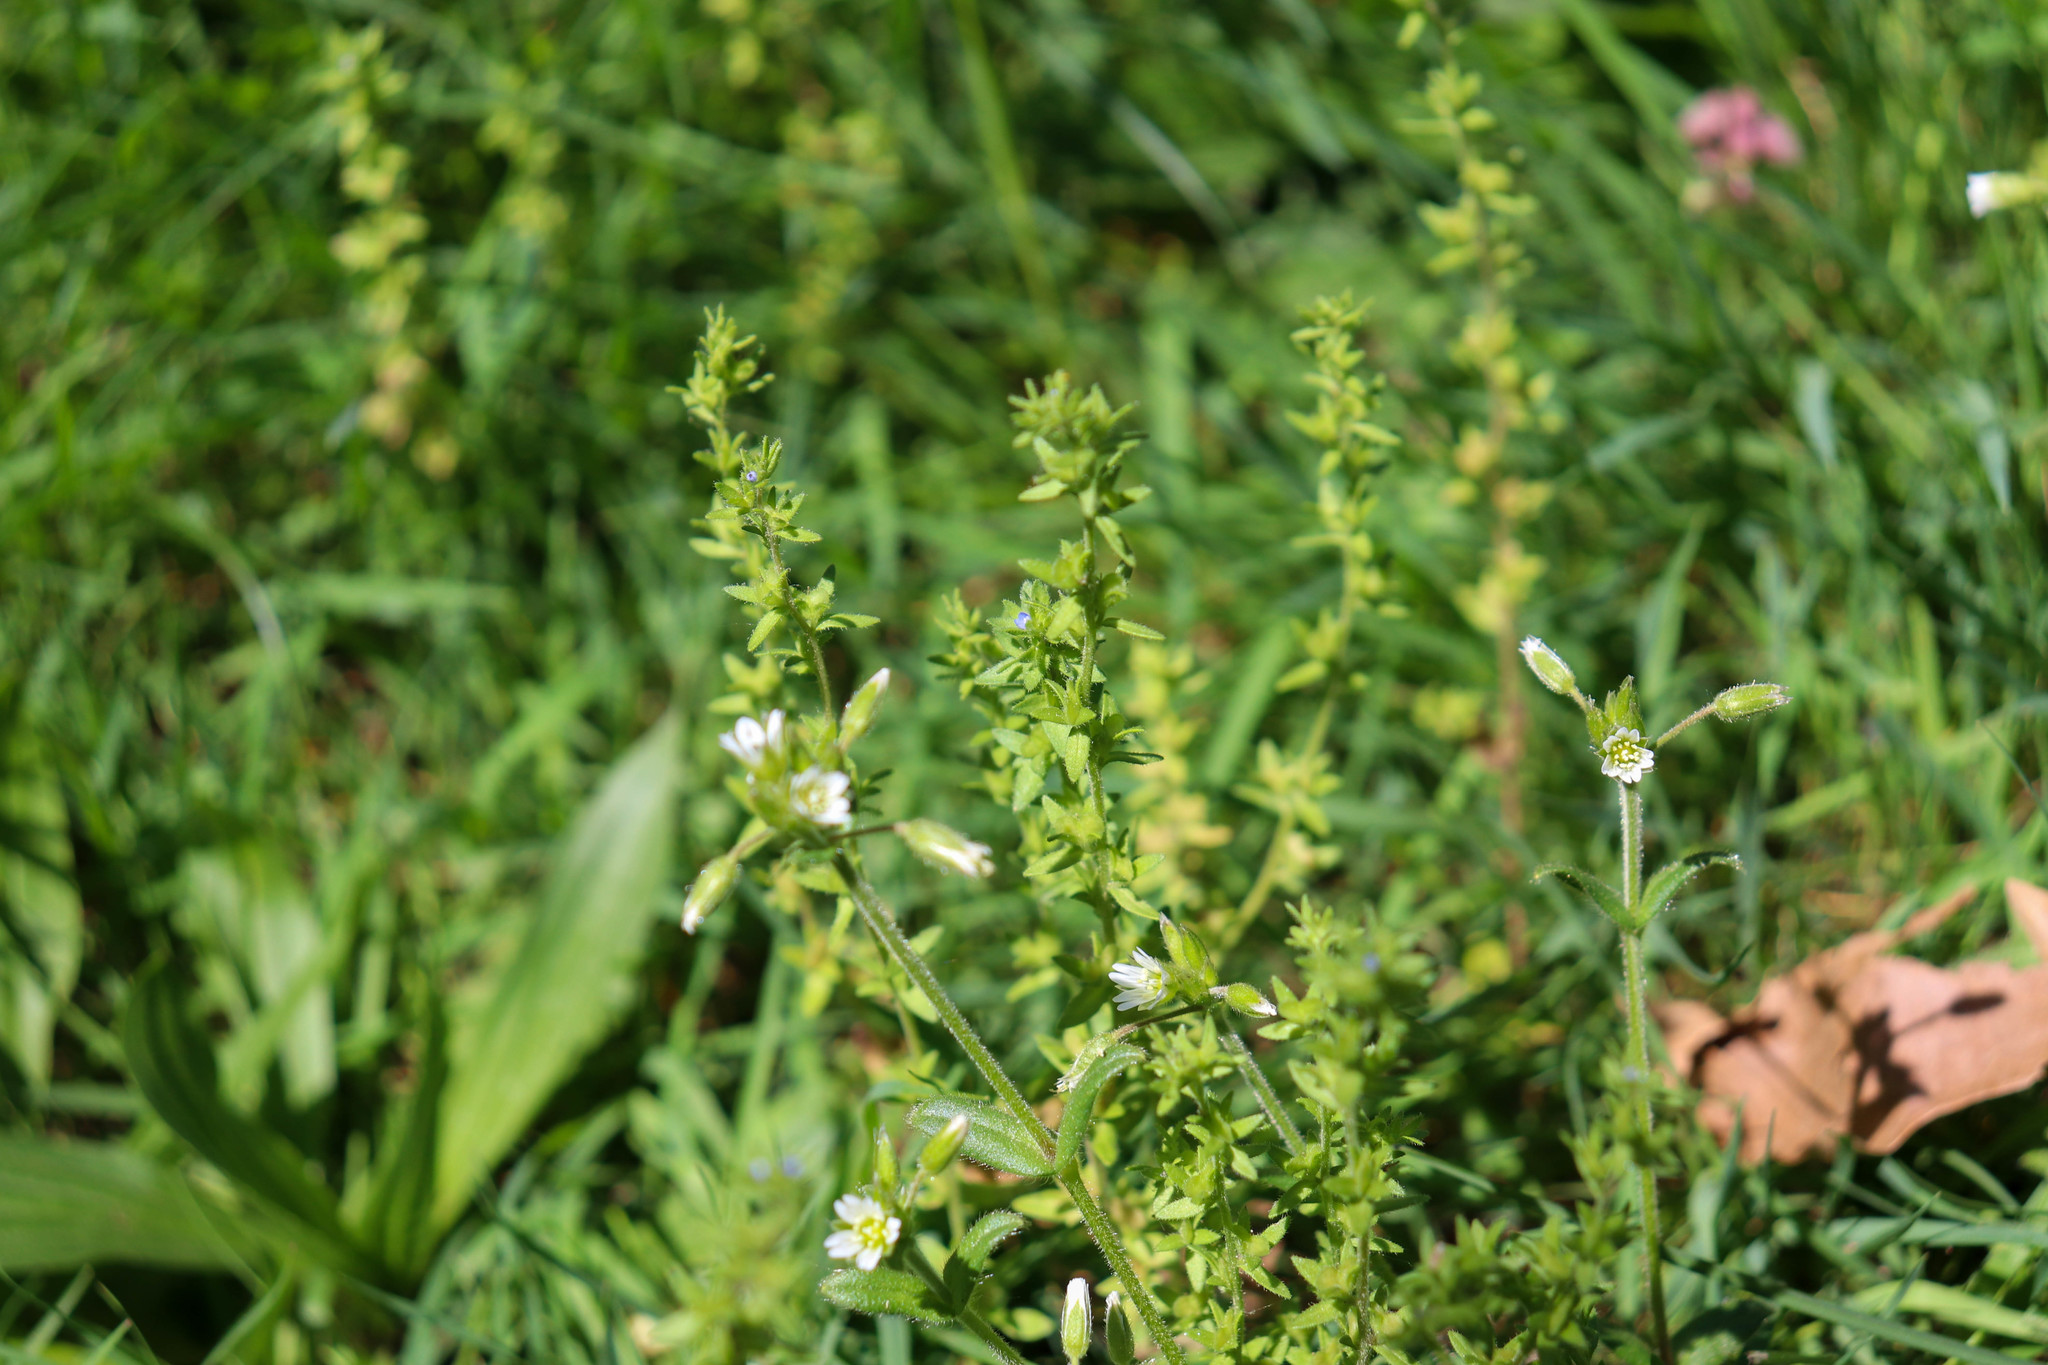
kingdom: Plantae
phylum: Tracheophyta
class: Magnoliopsida
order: Lamiales
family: Plantaginaceae
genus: Veronica
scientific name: Veronica arvensis
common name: Corn speedwell
